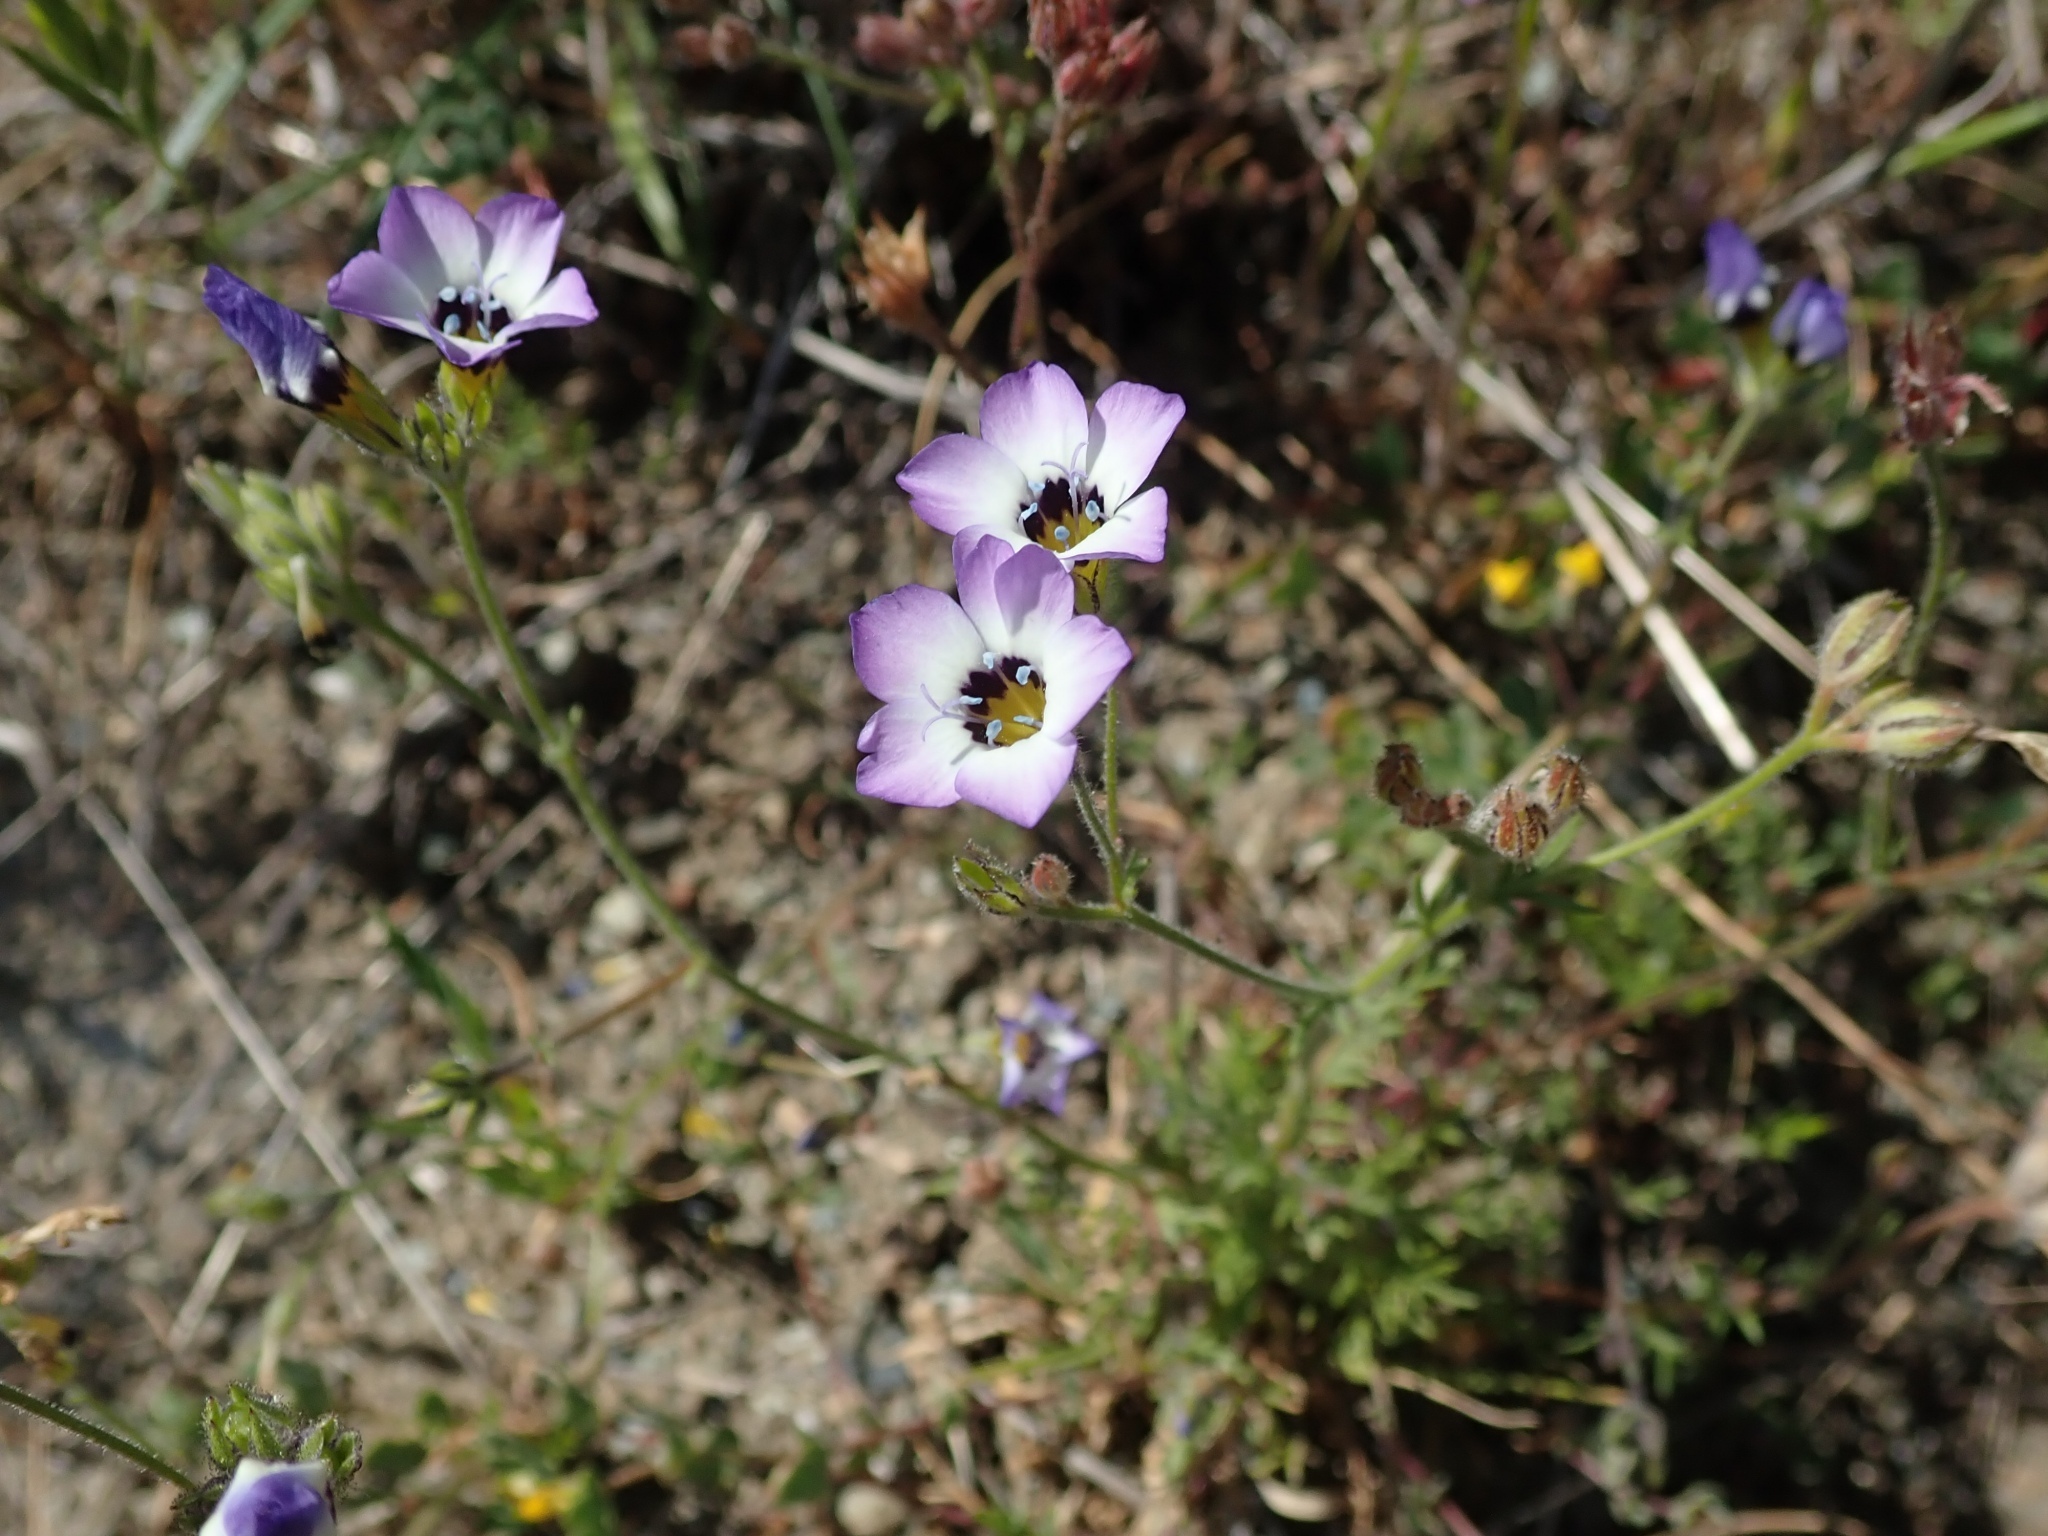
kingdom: Plantae
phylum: Tracheophyta
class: Magnoliopsida
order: Ericales
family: Polemoniaceae
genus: Gilia
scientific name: Gilia tricolor
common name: Bird's-eyes
